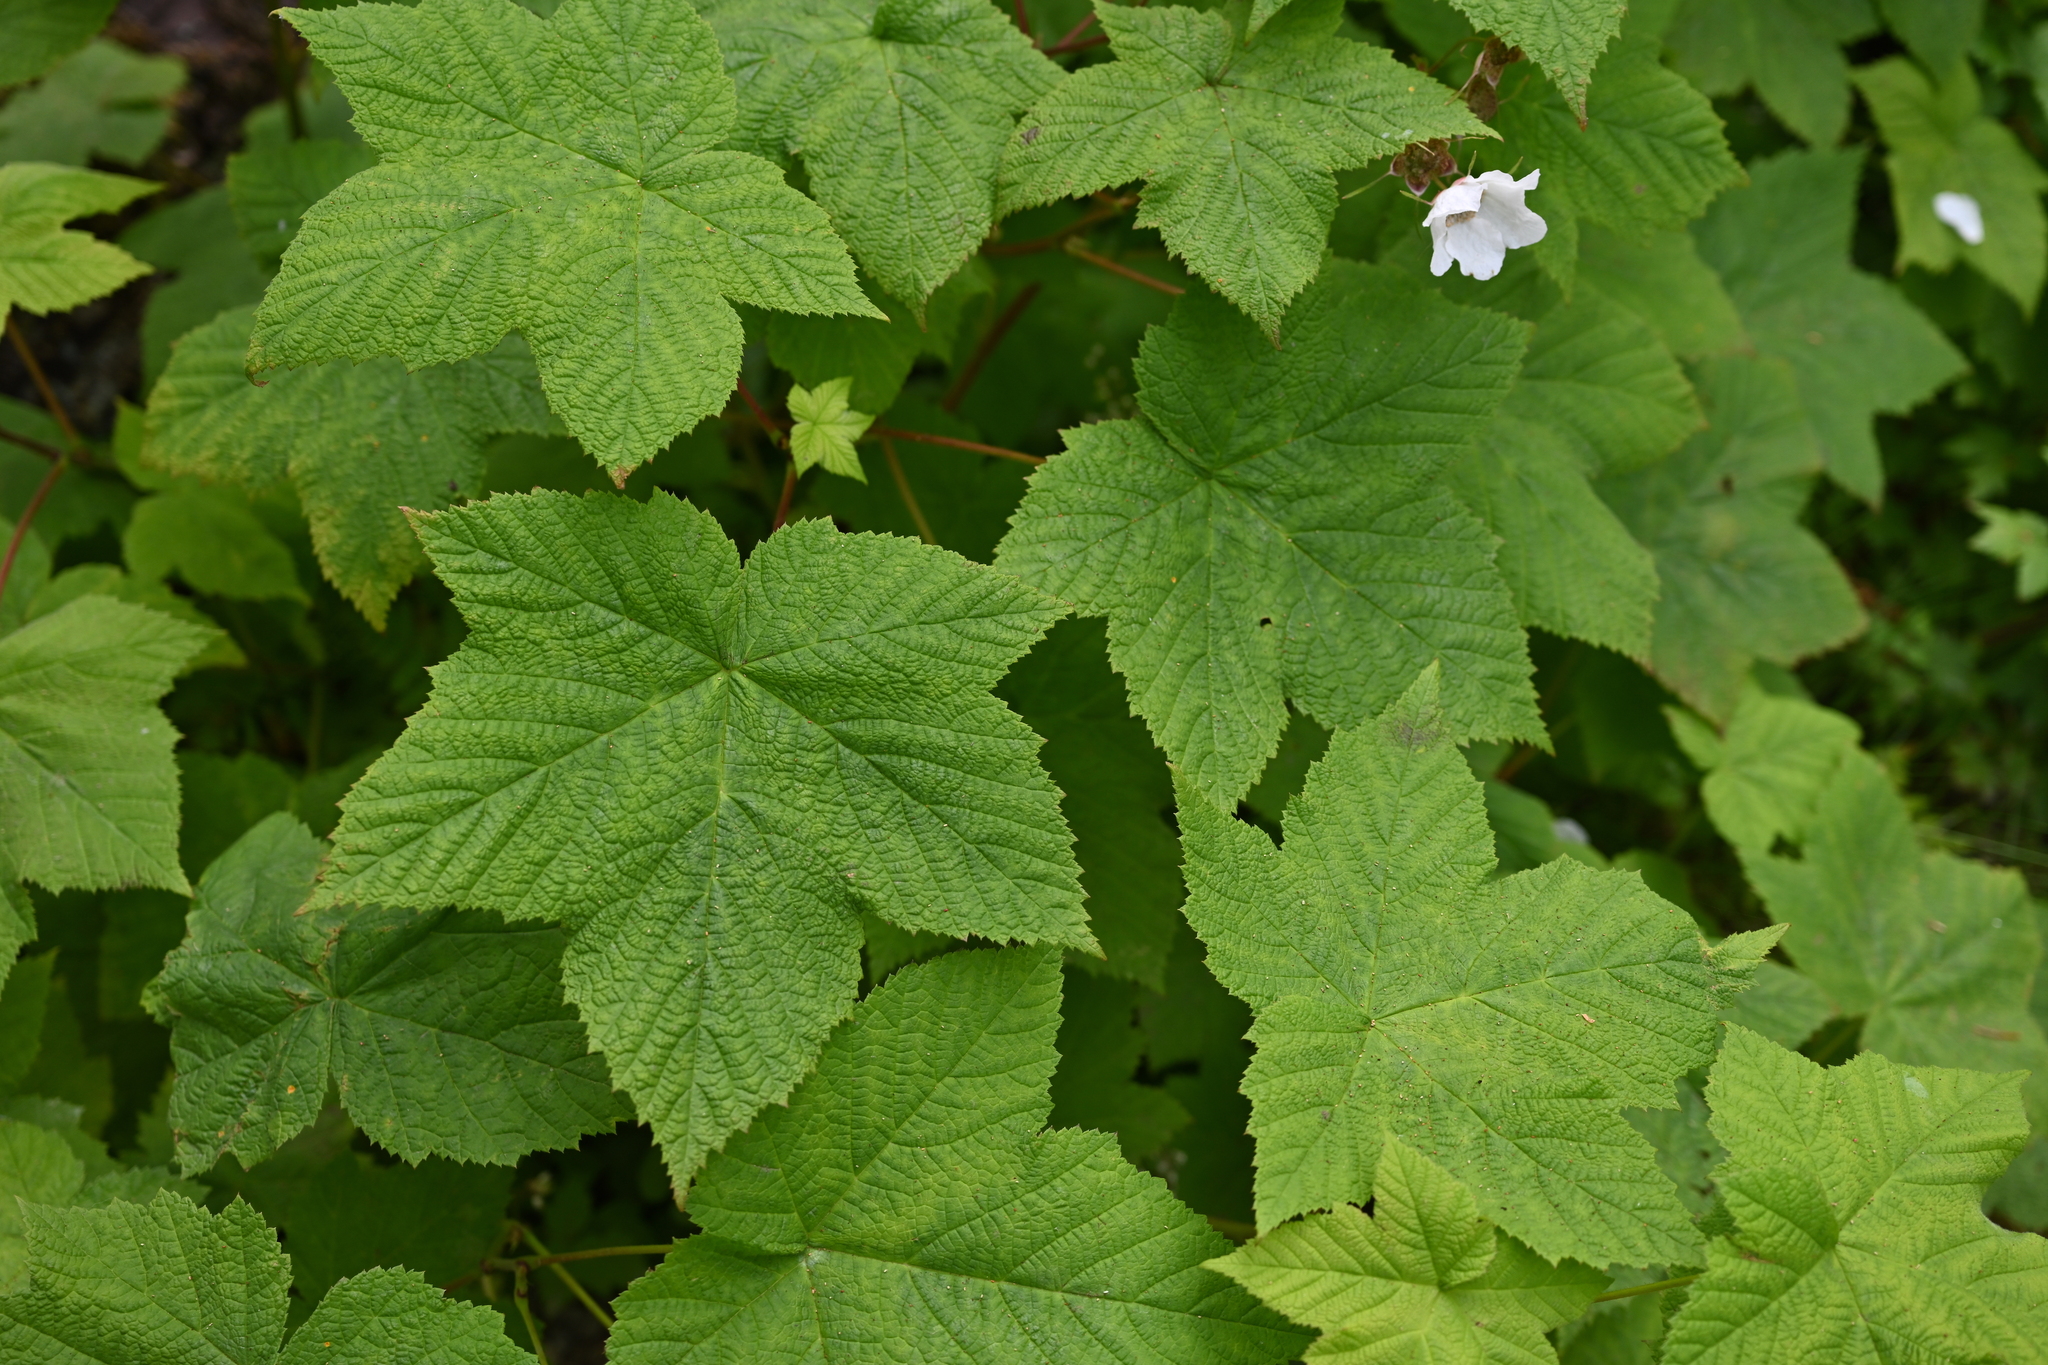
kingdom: Plantae
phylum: Tracheophyta
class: Magnoliopsida
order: Rosales
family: Rosaceae
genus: Rubus
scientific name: Rubus parviflorus
